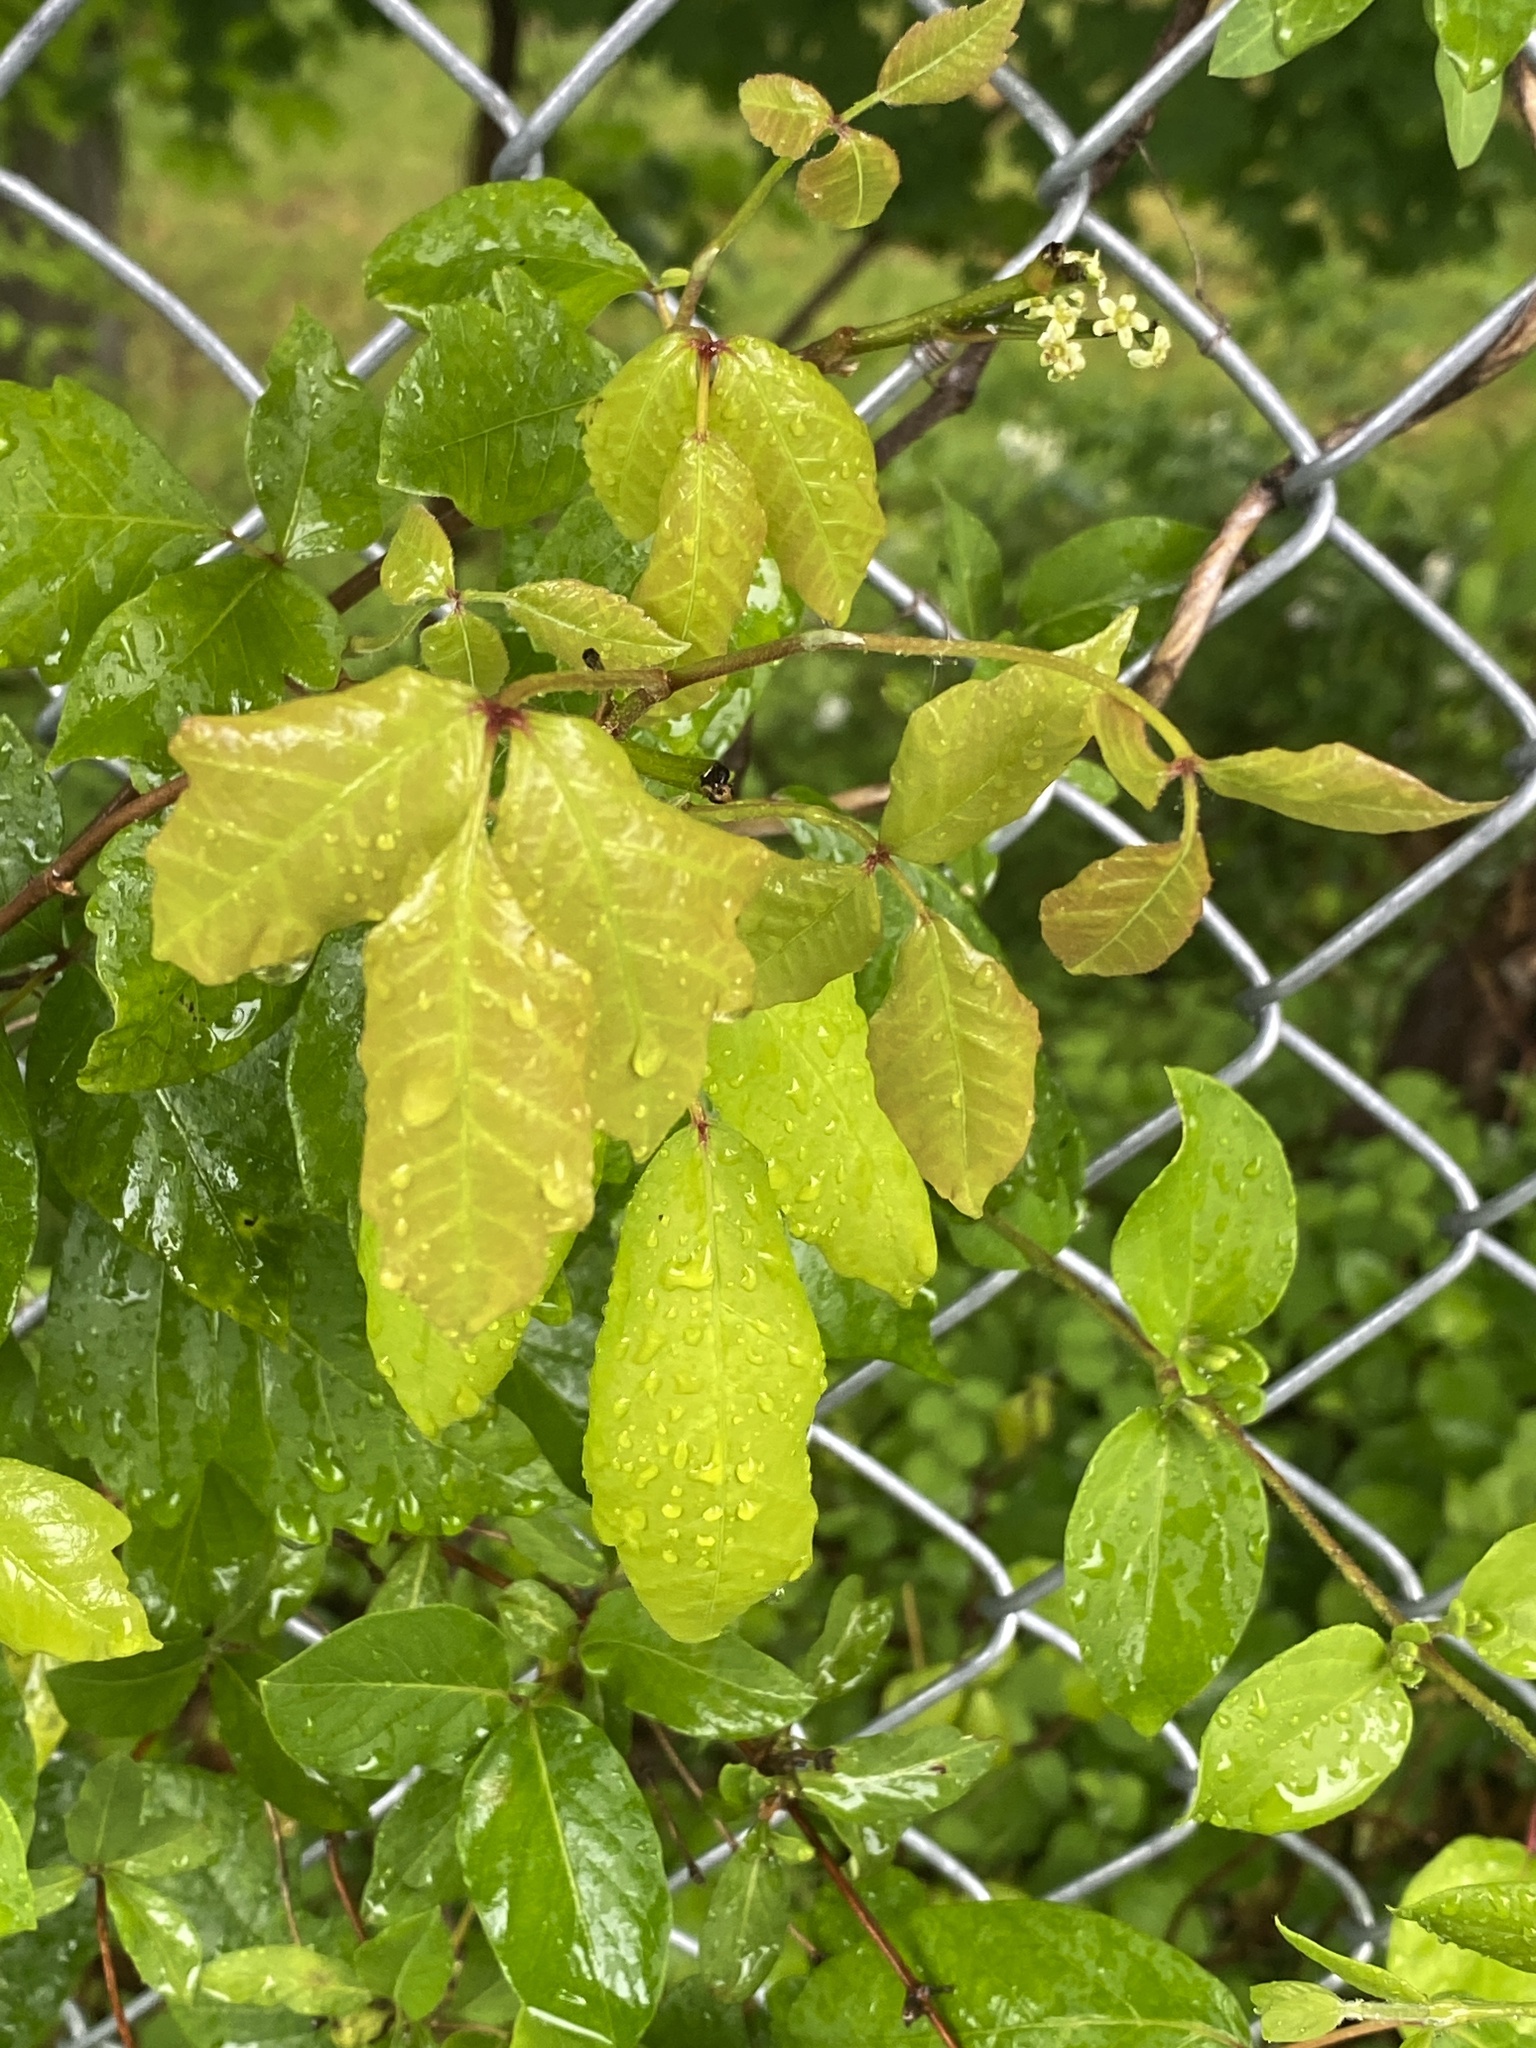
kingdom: Plantae
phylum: Tracheophyta
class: Magnoliopsida
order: Sapindales
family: Anacardiaceae
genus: Toxicodendron
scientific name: Toxicodendron radicans
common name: Poison ivy
